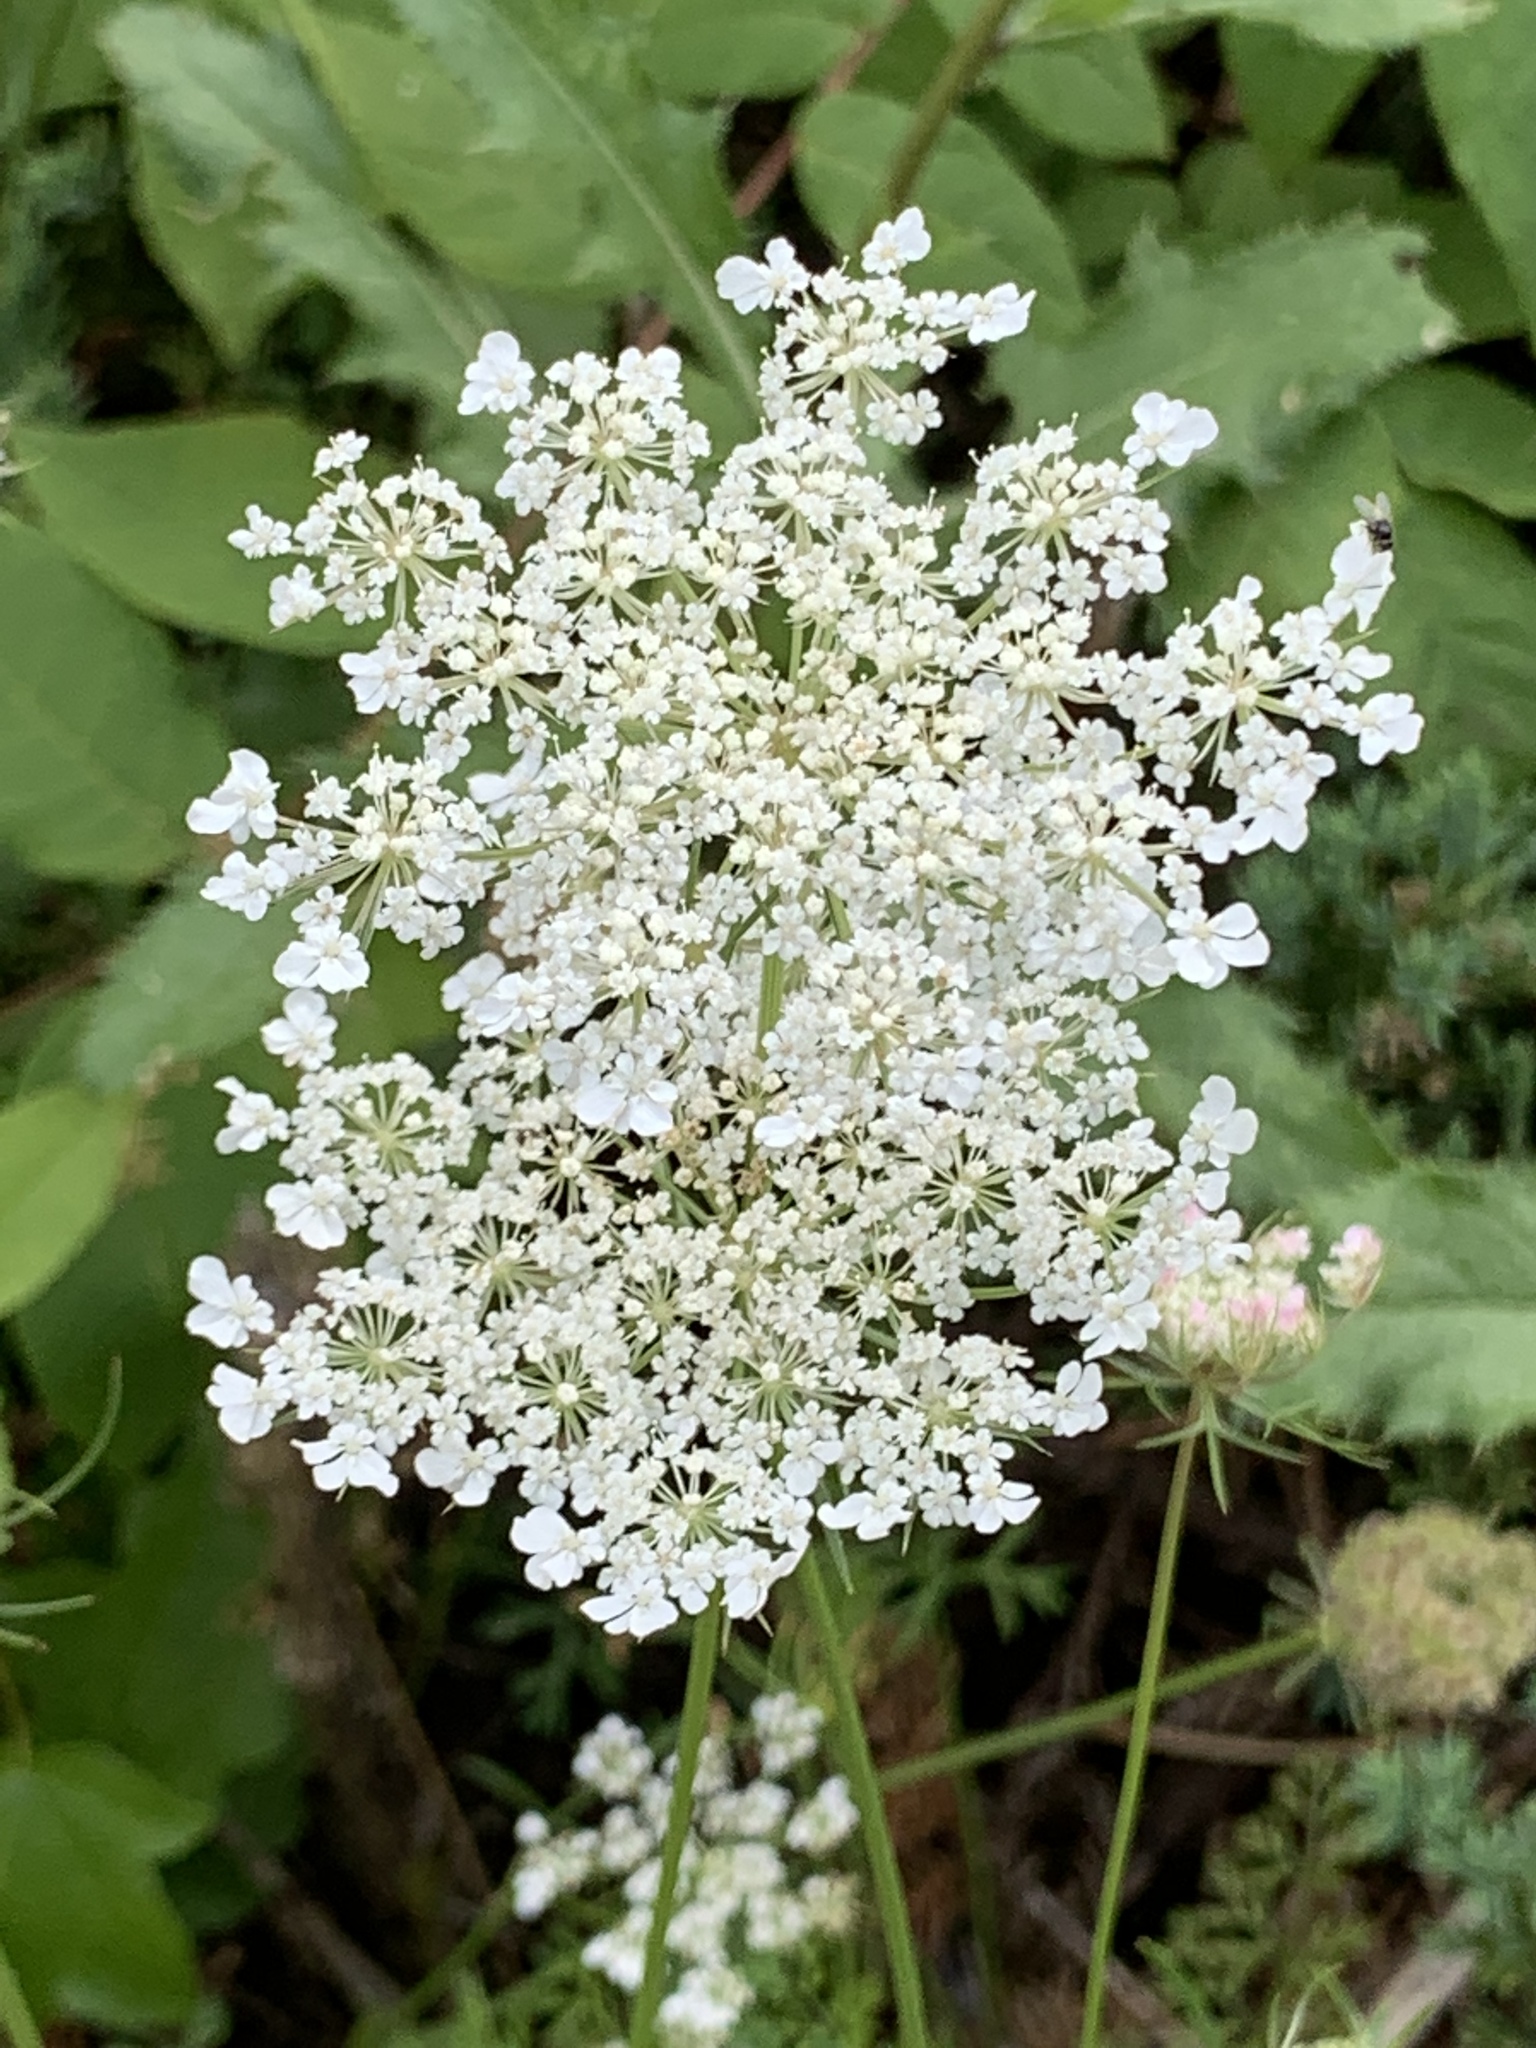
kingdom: Plantae
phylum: Tracheophyta
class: Magnoliopsida
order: Apiales
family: Apiaceae
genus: Daucus
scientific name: Daucus carota
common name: Wild carrot
